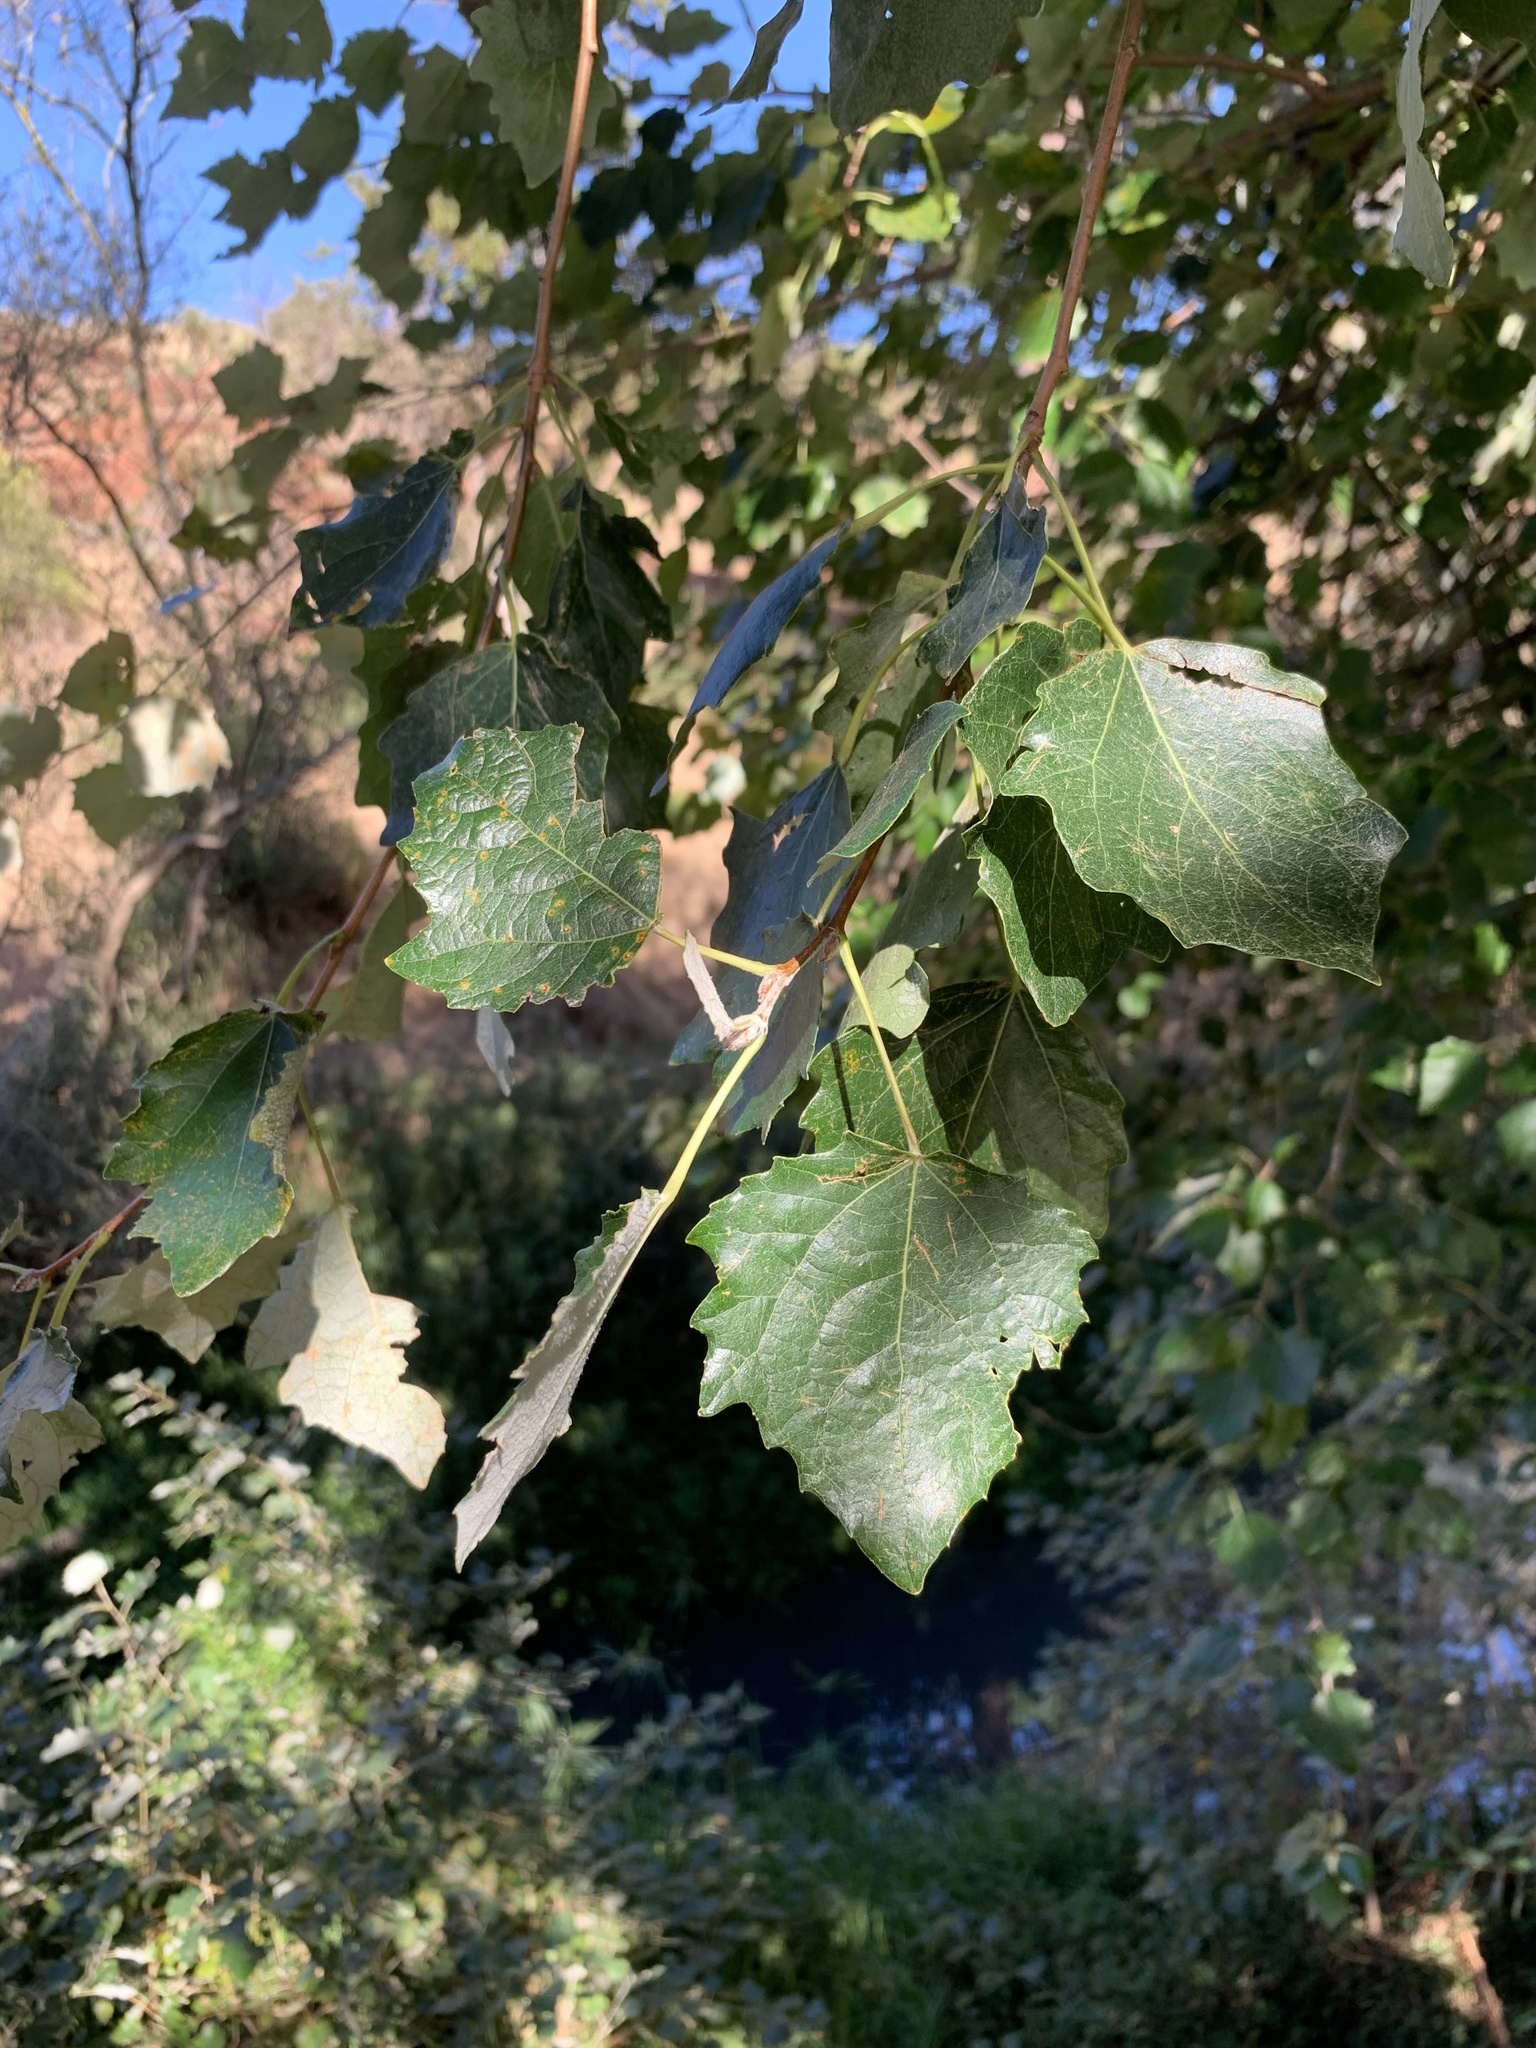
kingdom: Plantae
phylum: Tracheophyta
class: Magnoliopsida
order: Malpighiales
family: Salicaceae
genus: Populus
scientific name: Populus canescens
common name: Gray poplar
